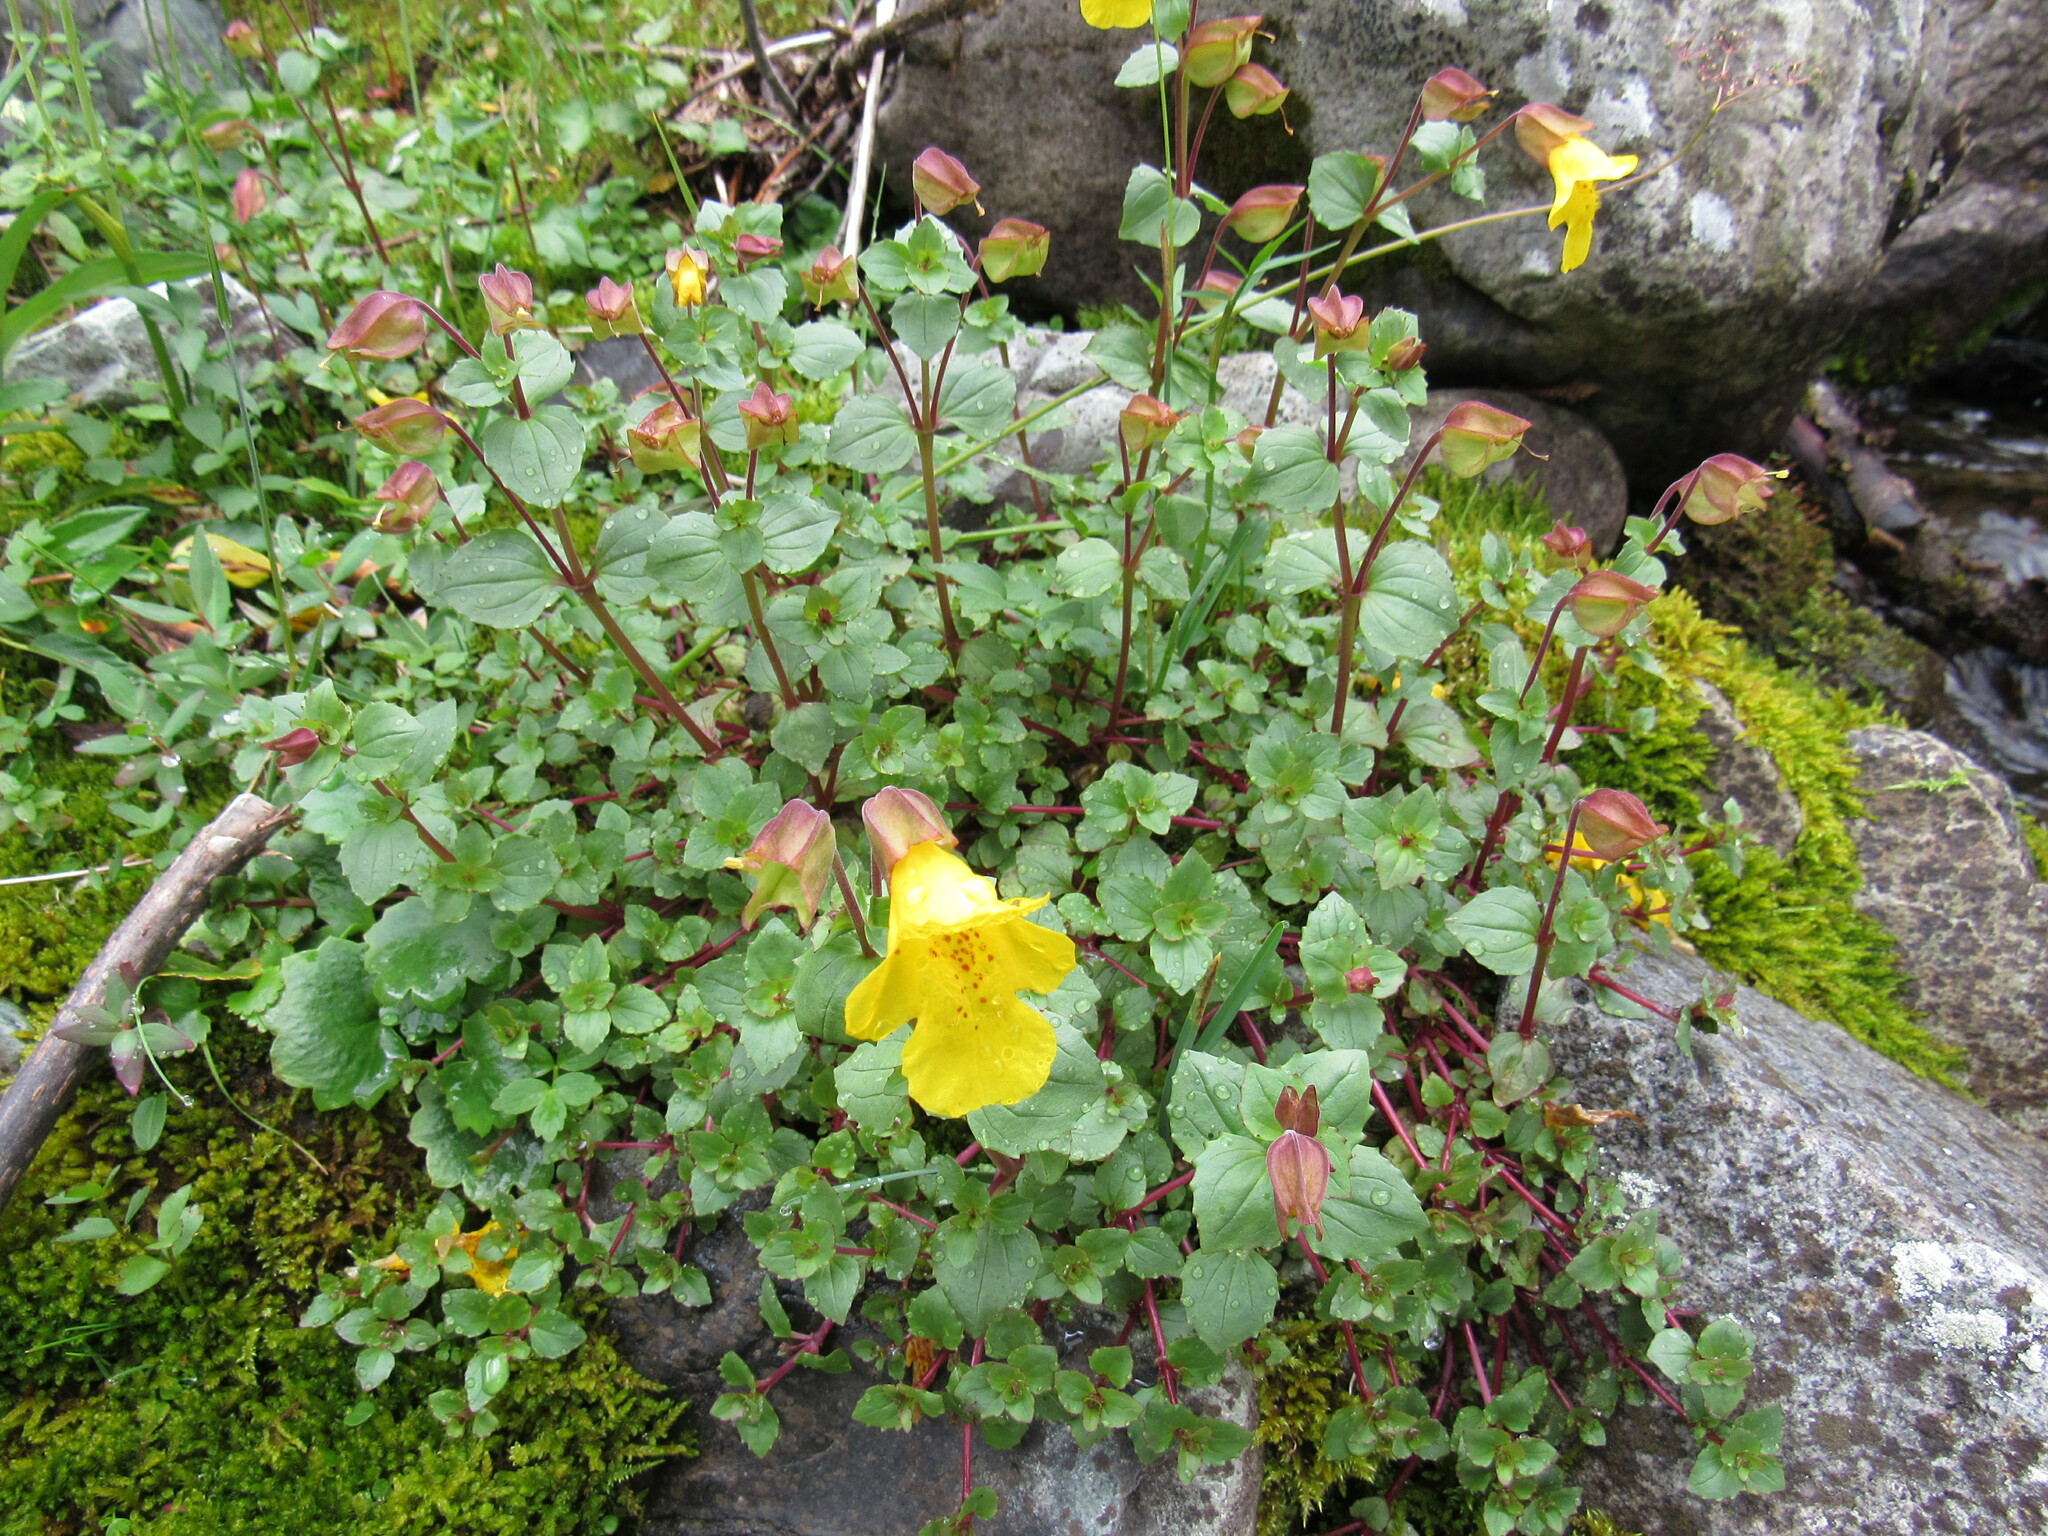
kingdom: Plantae
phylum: Tracheophyta
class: Magnoliopsida
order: Lamiales
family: Phrymaceae
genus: Erythranthe
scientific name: Erythranthe minor
